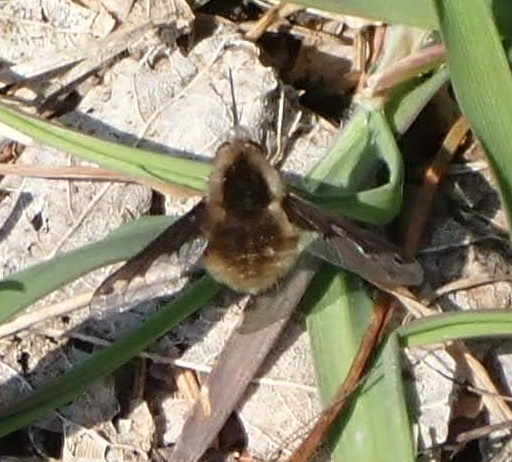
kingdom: Animalia
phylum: Arthropoda
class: Insecta
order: Diptera
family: Bombyliidae
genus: Bombylius
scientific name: Bombylius major
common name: Bee fly
